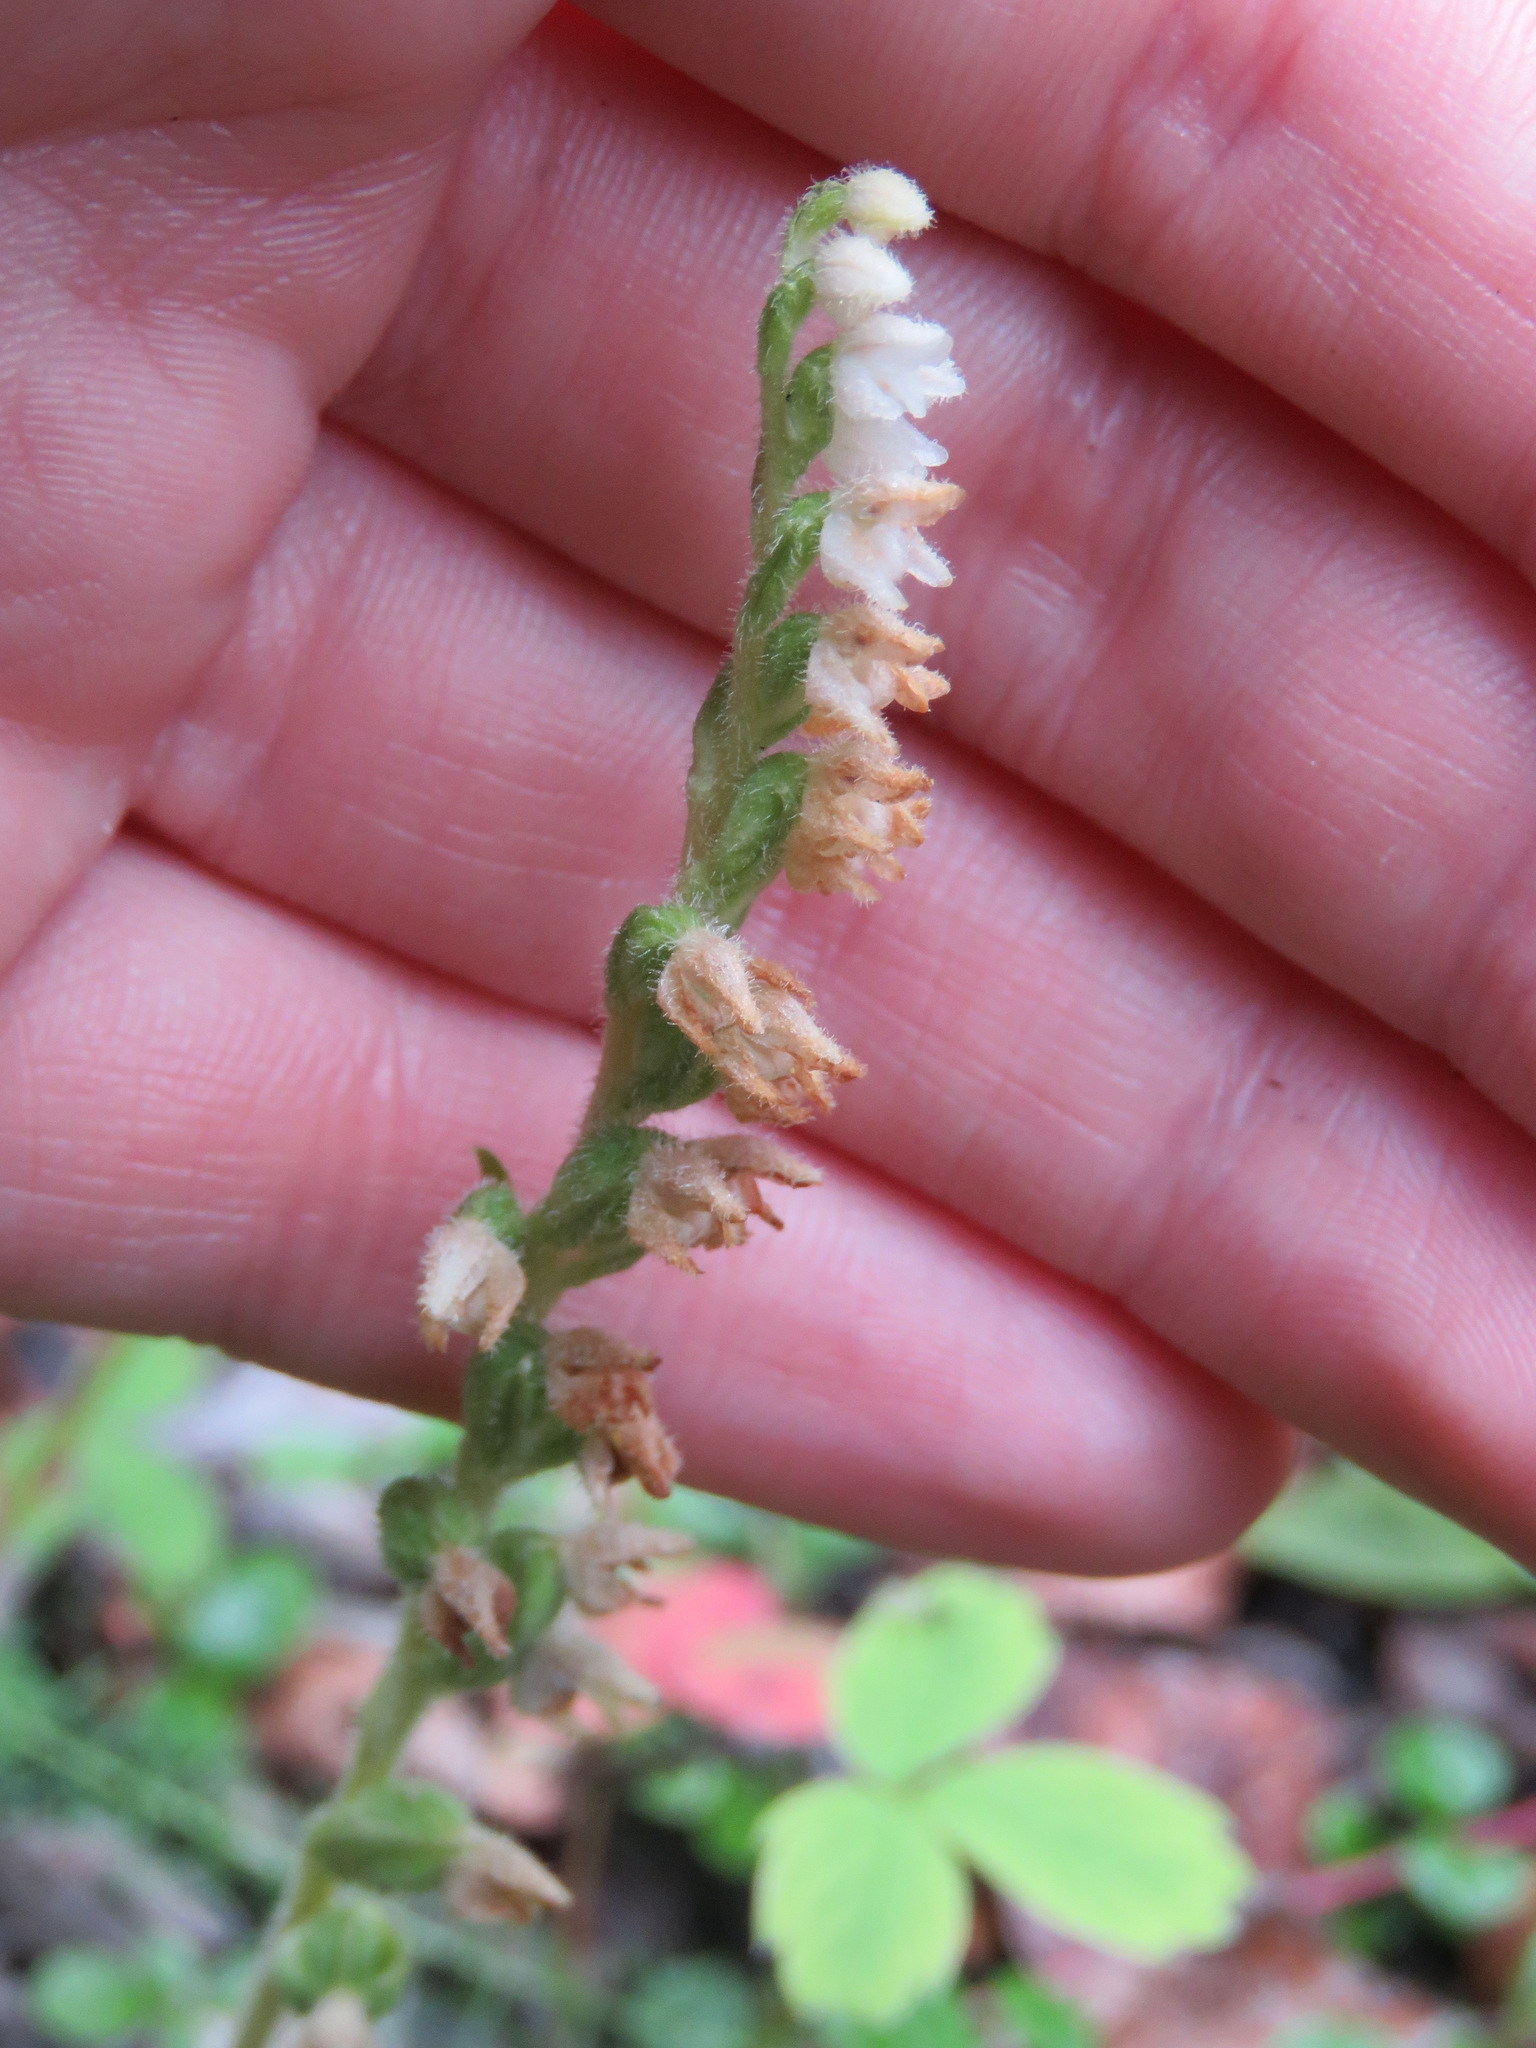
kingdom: Plantae
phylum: Tracheophyta
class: Liliopsida
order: Asparagales
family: Orchidaceae
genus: Goodyera
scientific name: Goodyera repens
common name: Creeping lady's-tresses
